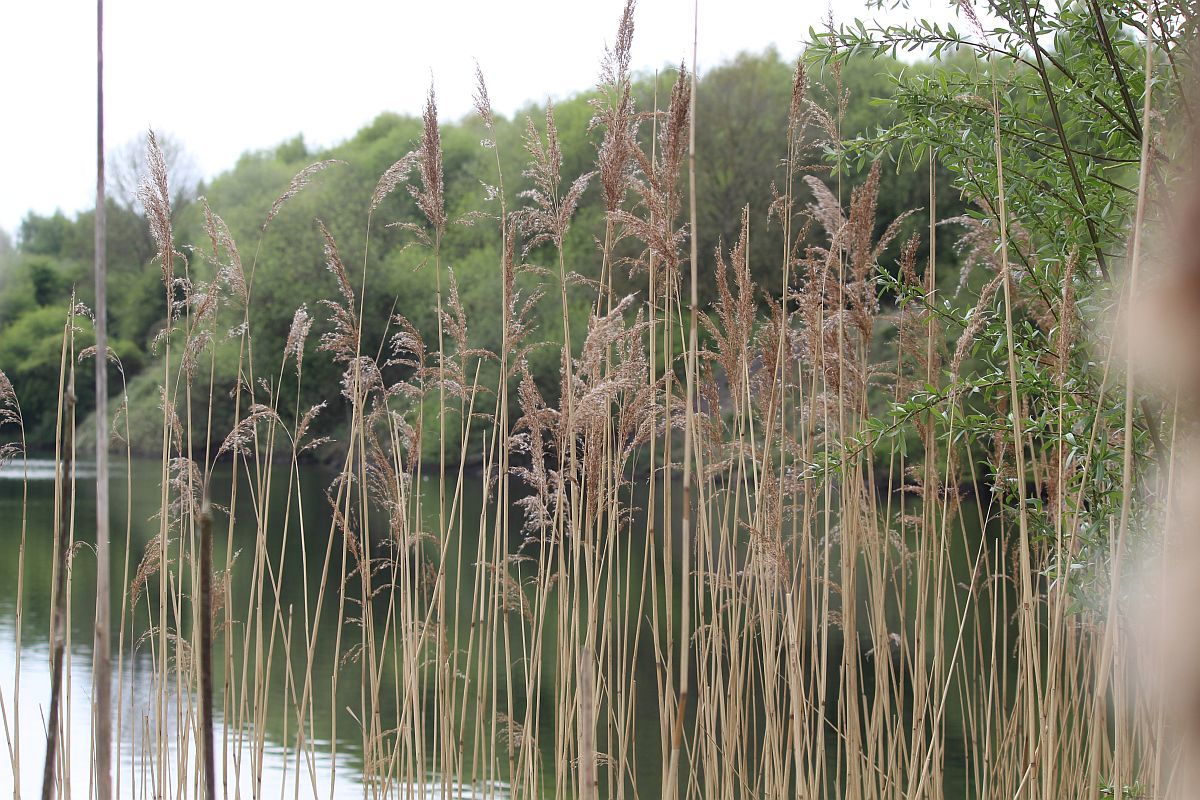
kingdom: Plantae
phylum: Tracheophyta
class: Liliopsida
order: Poales
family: Poaceae
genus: Phragmites
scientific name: Phragmites australis
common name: Common reed
